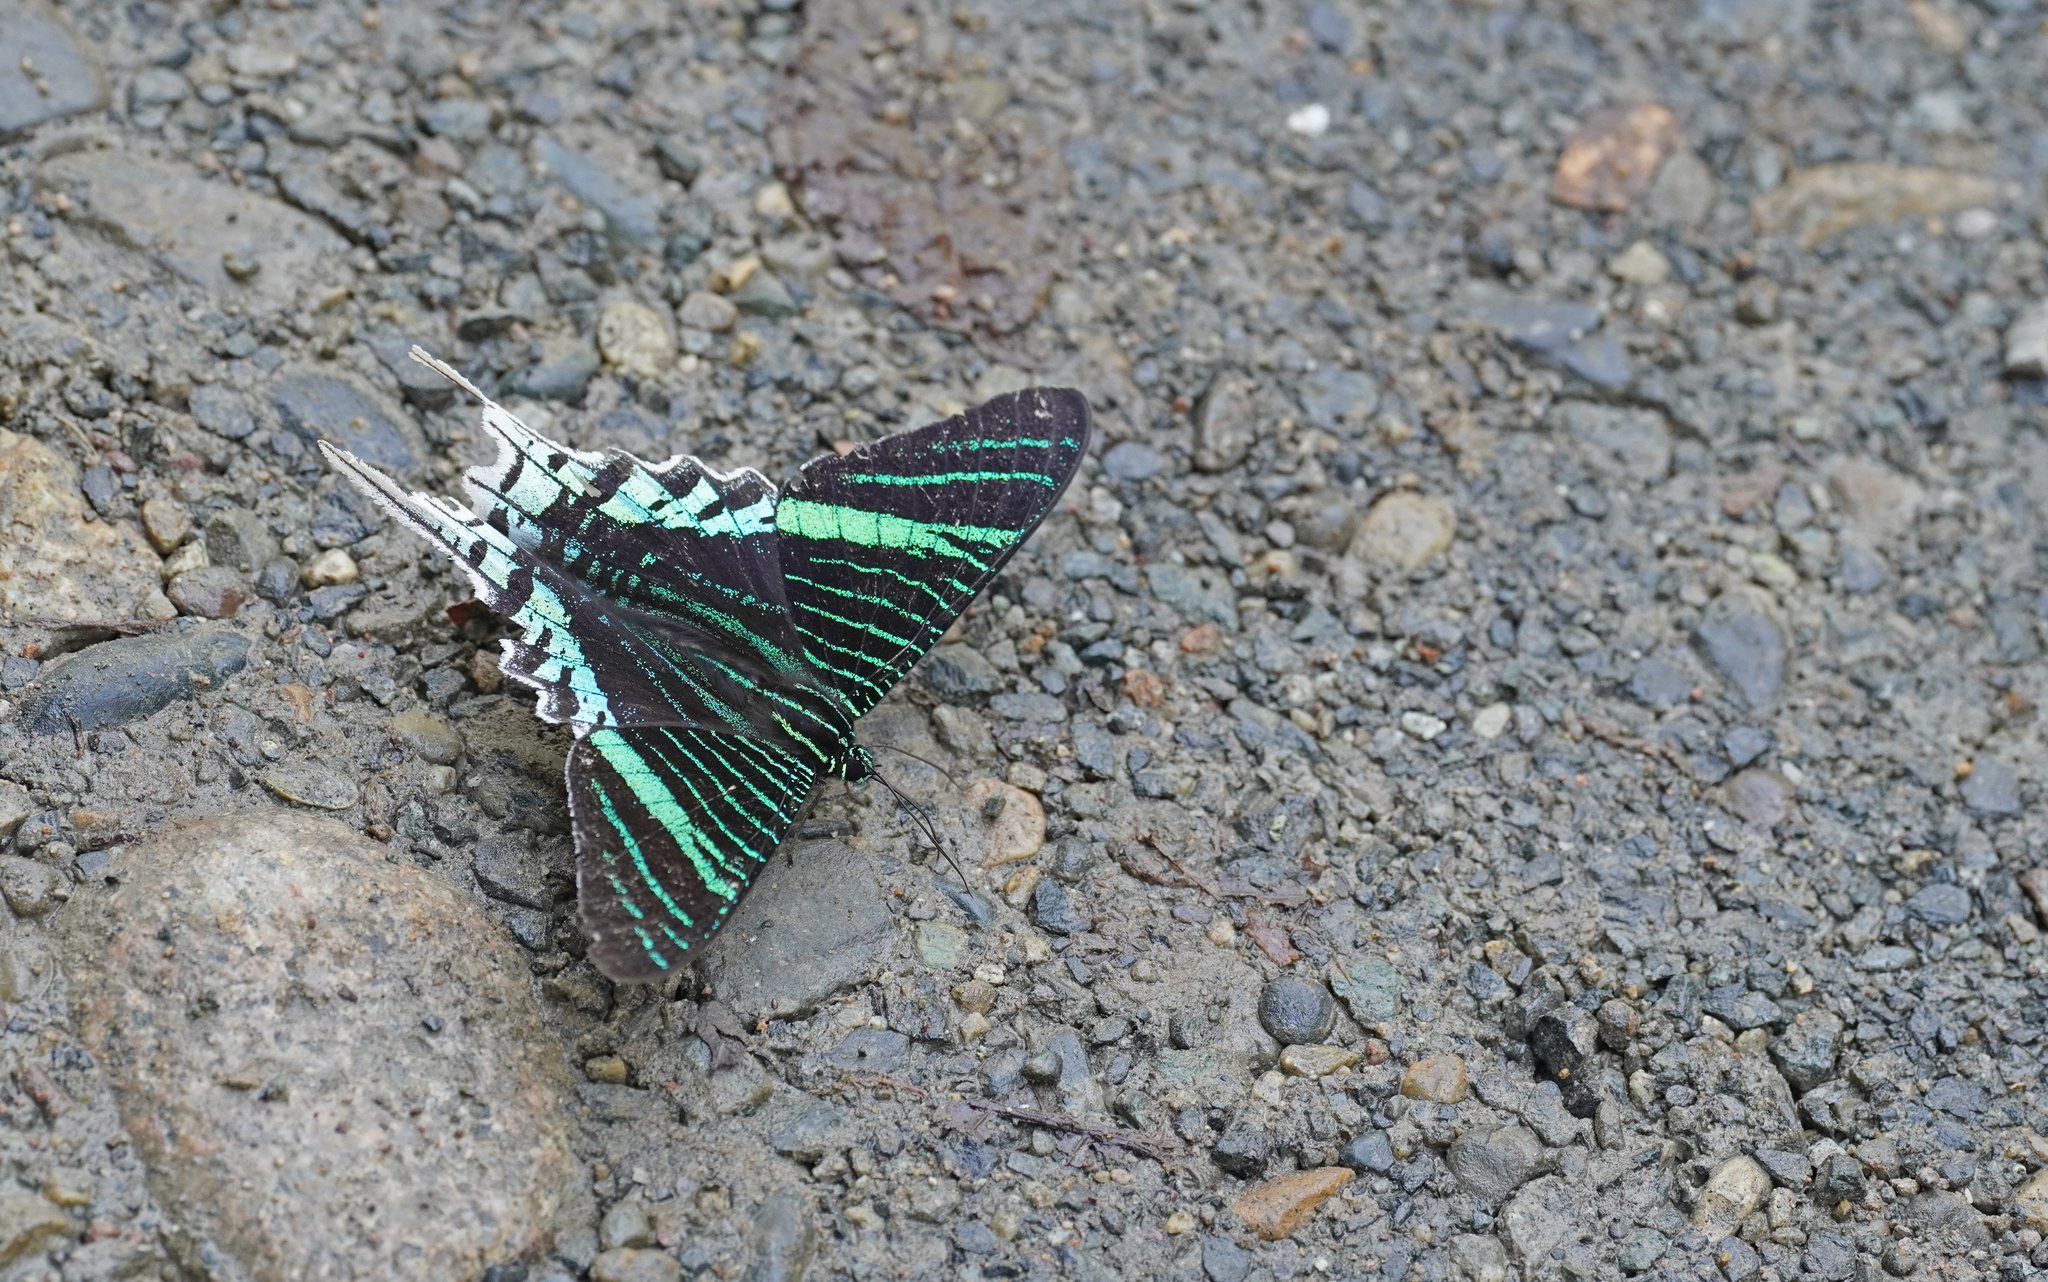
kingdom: Animalia
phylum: Arthropoda
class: Insecta
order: Lepidoptera
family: Uraniidae
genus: Urania
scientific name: Urania leilus
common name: Peacock moth
